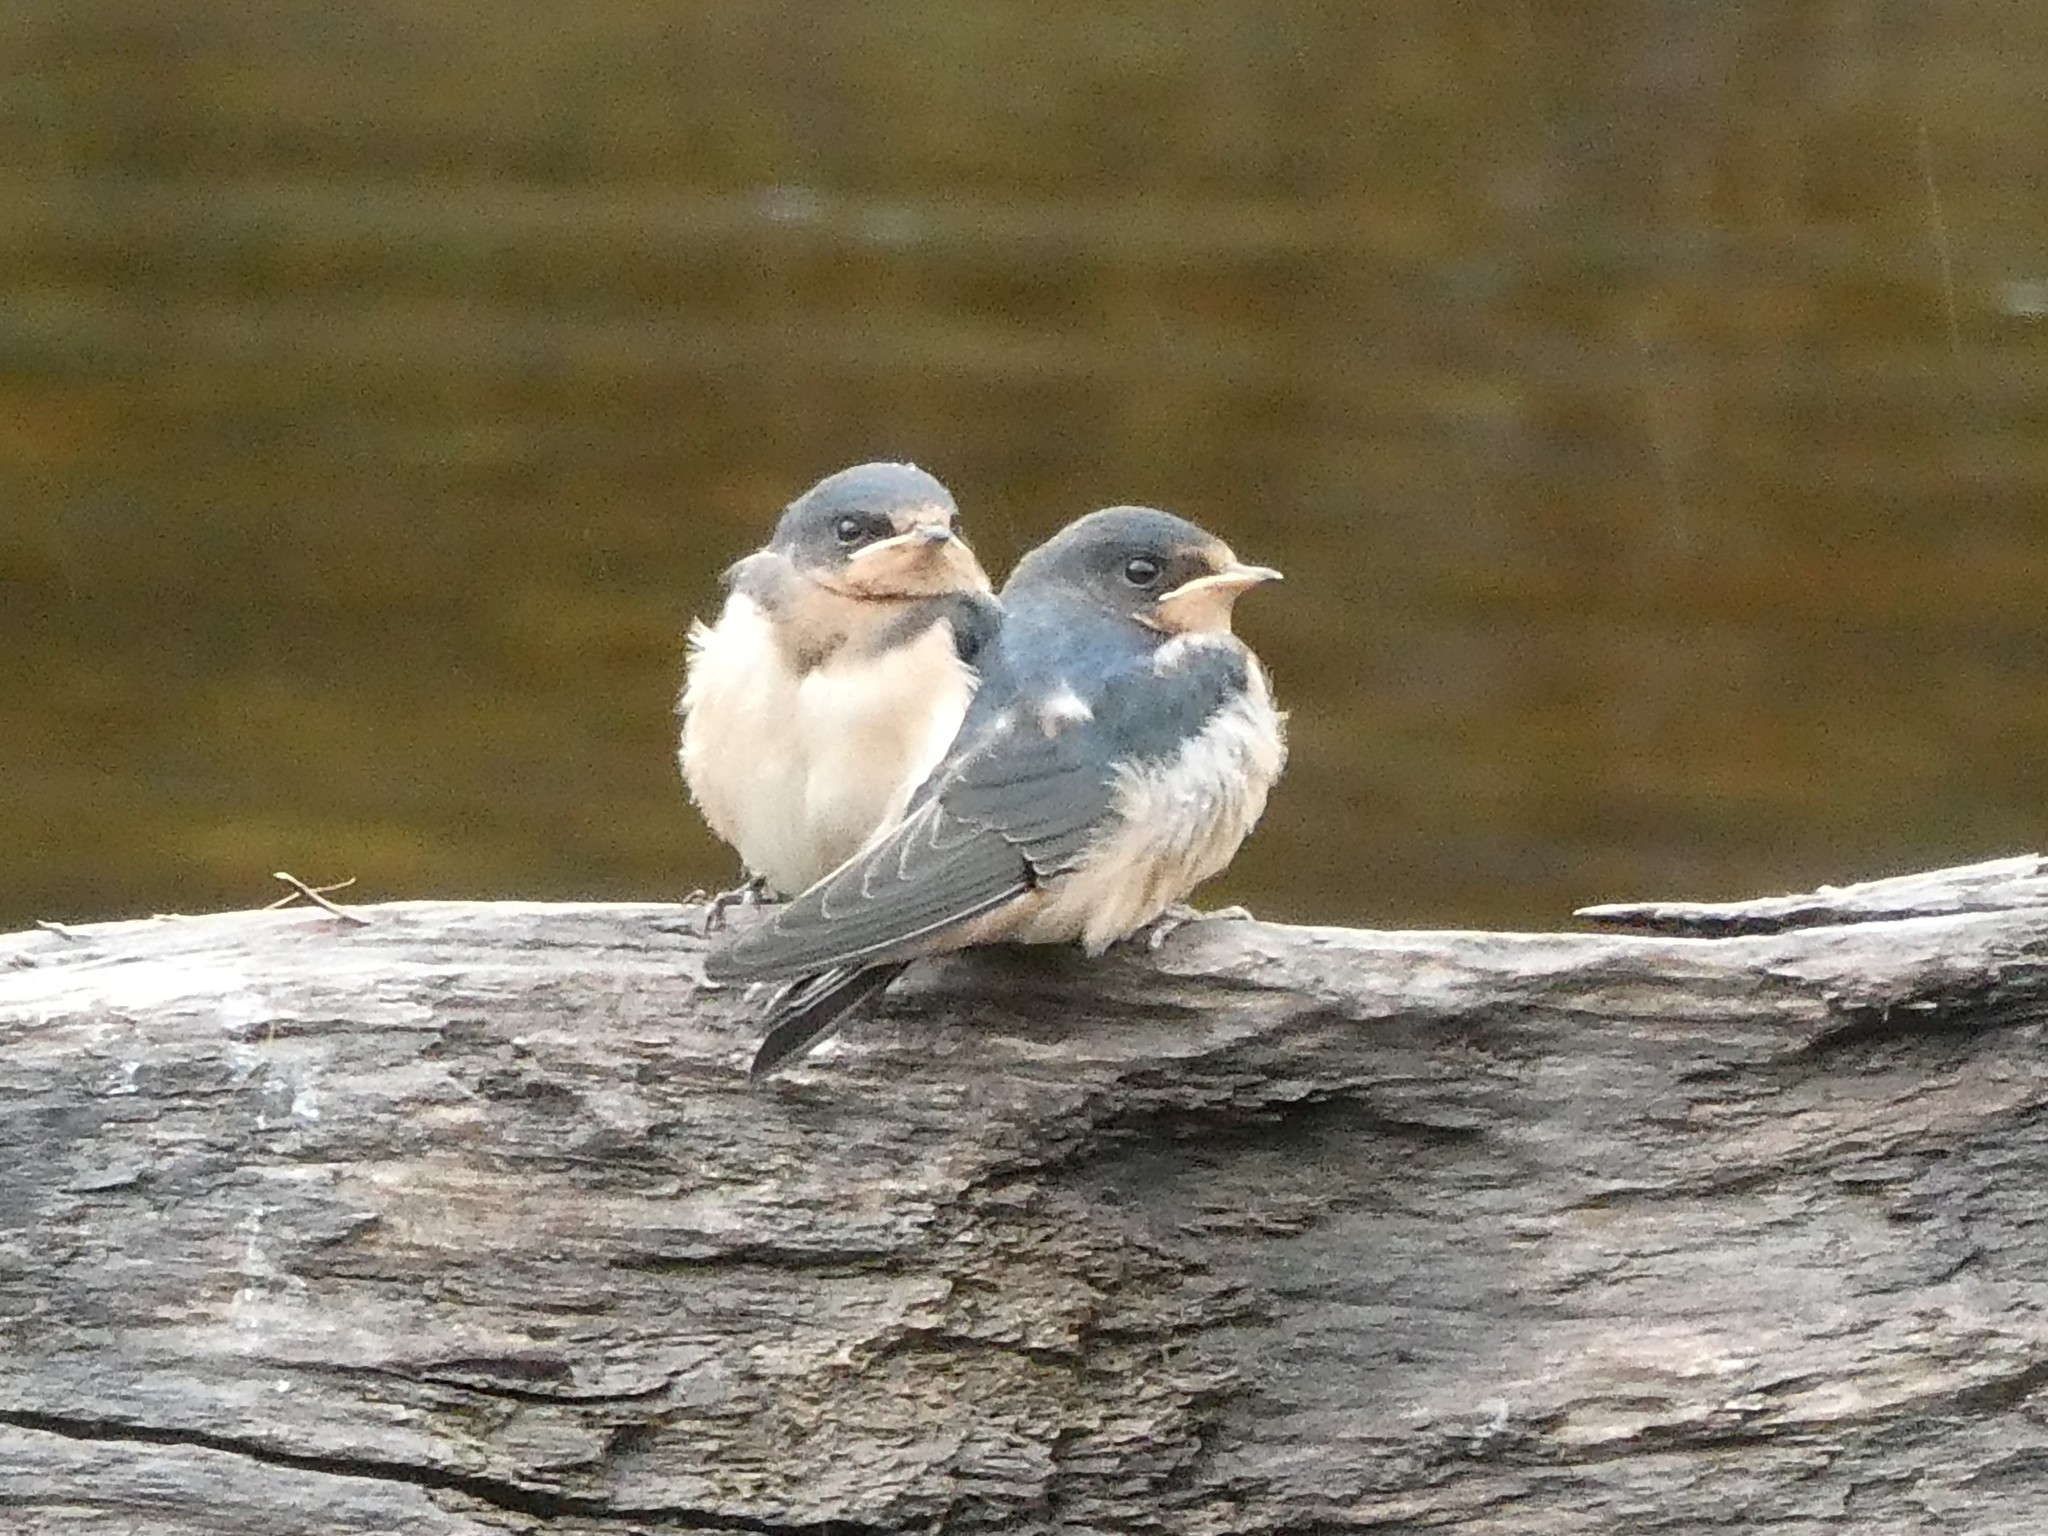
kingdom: Animalia
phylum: Chordata
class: Aves
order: Passeriformes
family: Hirundinidae
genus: Hirundo
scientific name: Hirundo rustica
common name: Barn swallow
